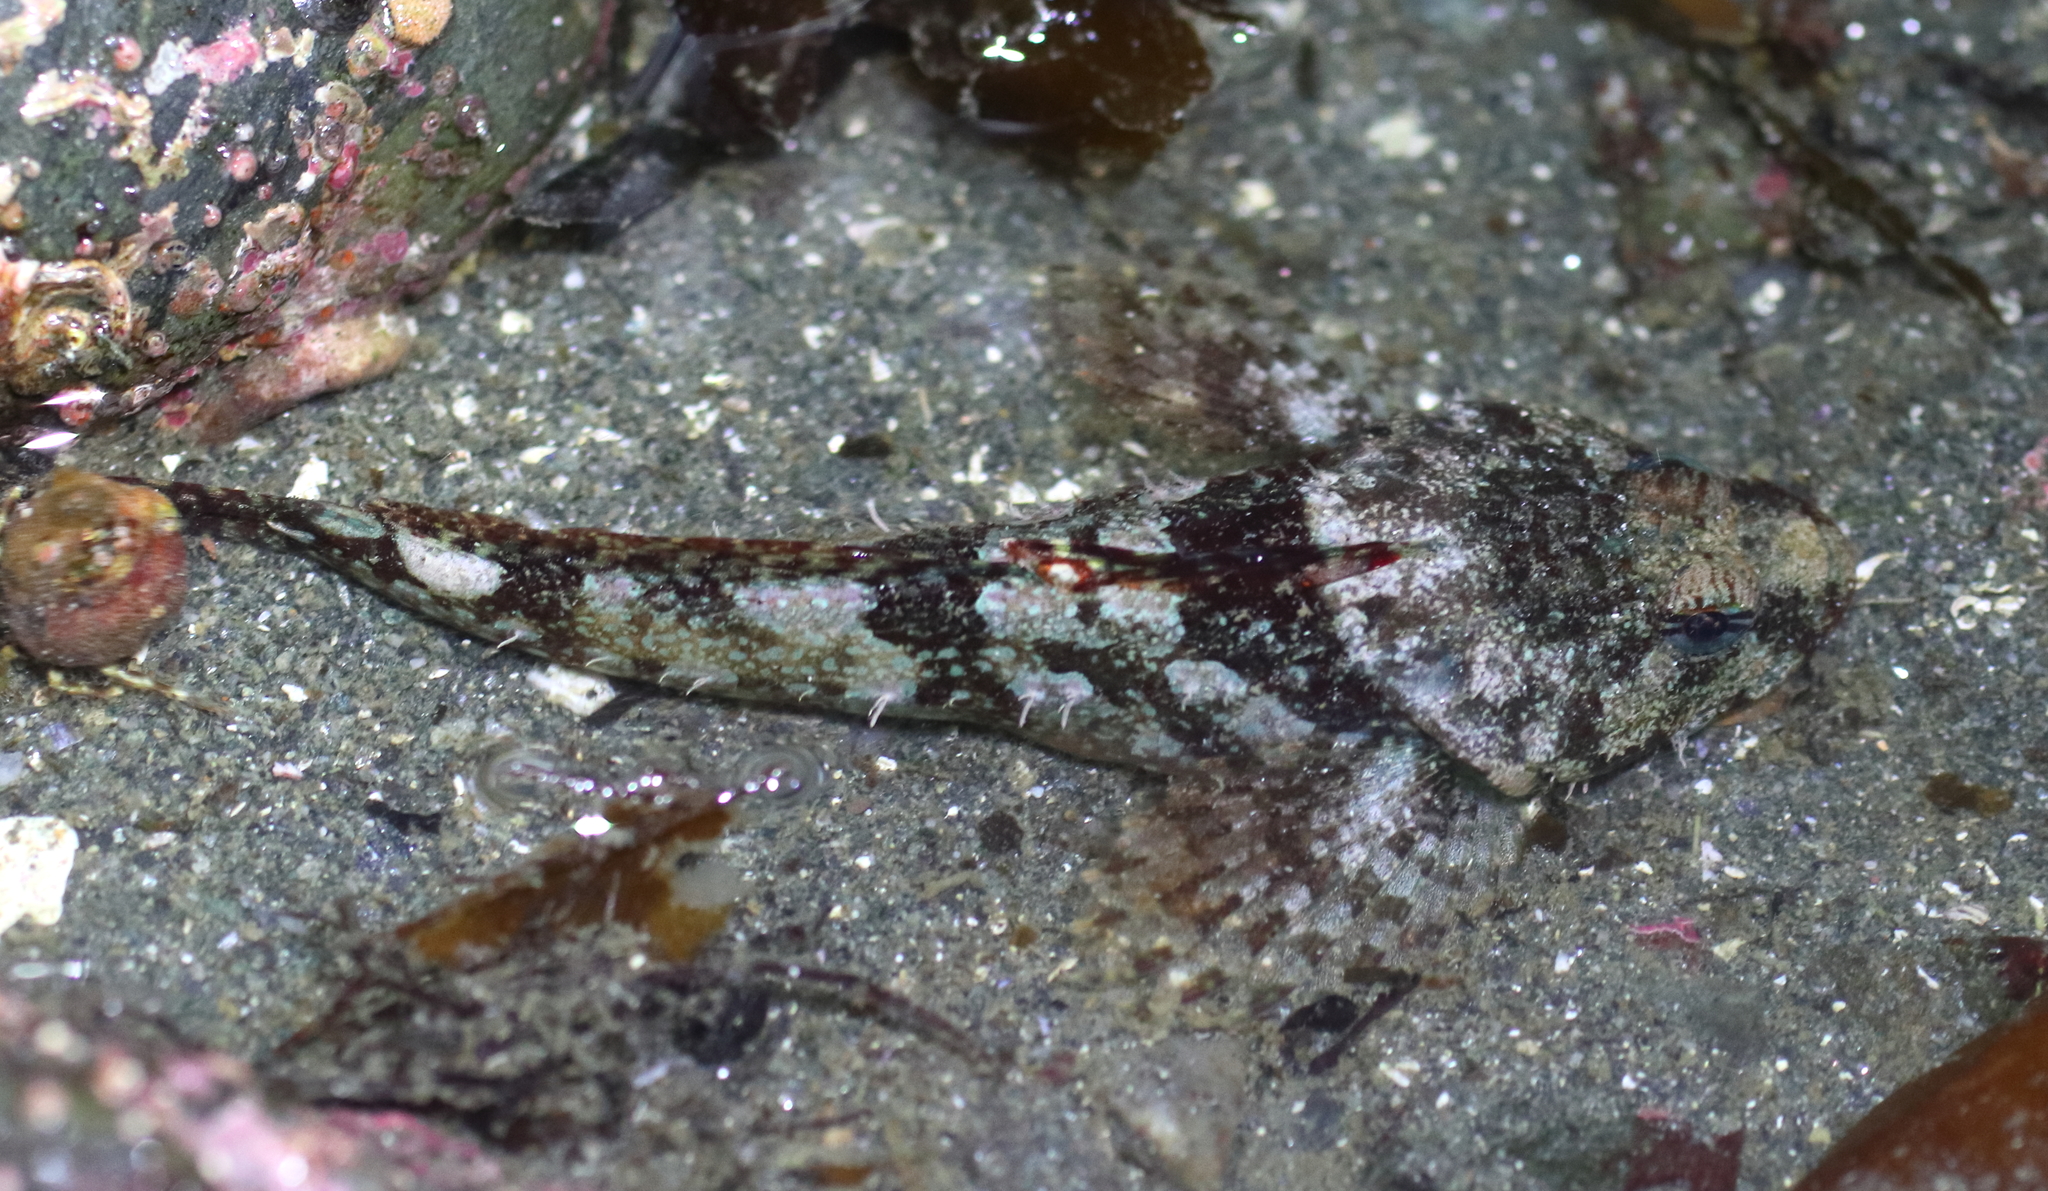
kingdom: Animalia
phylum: Chordata
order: Scorpaeniformes
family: Cottidae
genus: Artedius
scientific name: Artedius lateralis
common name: Smooth-head sculpin
